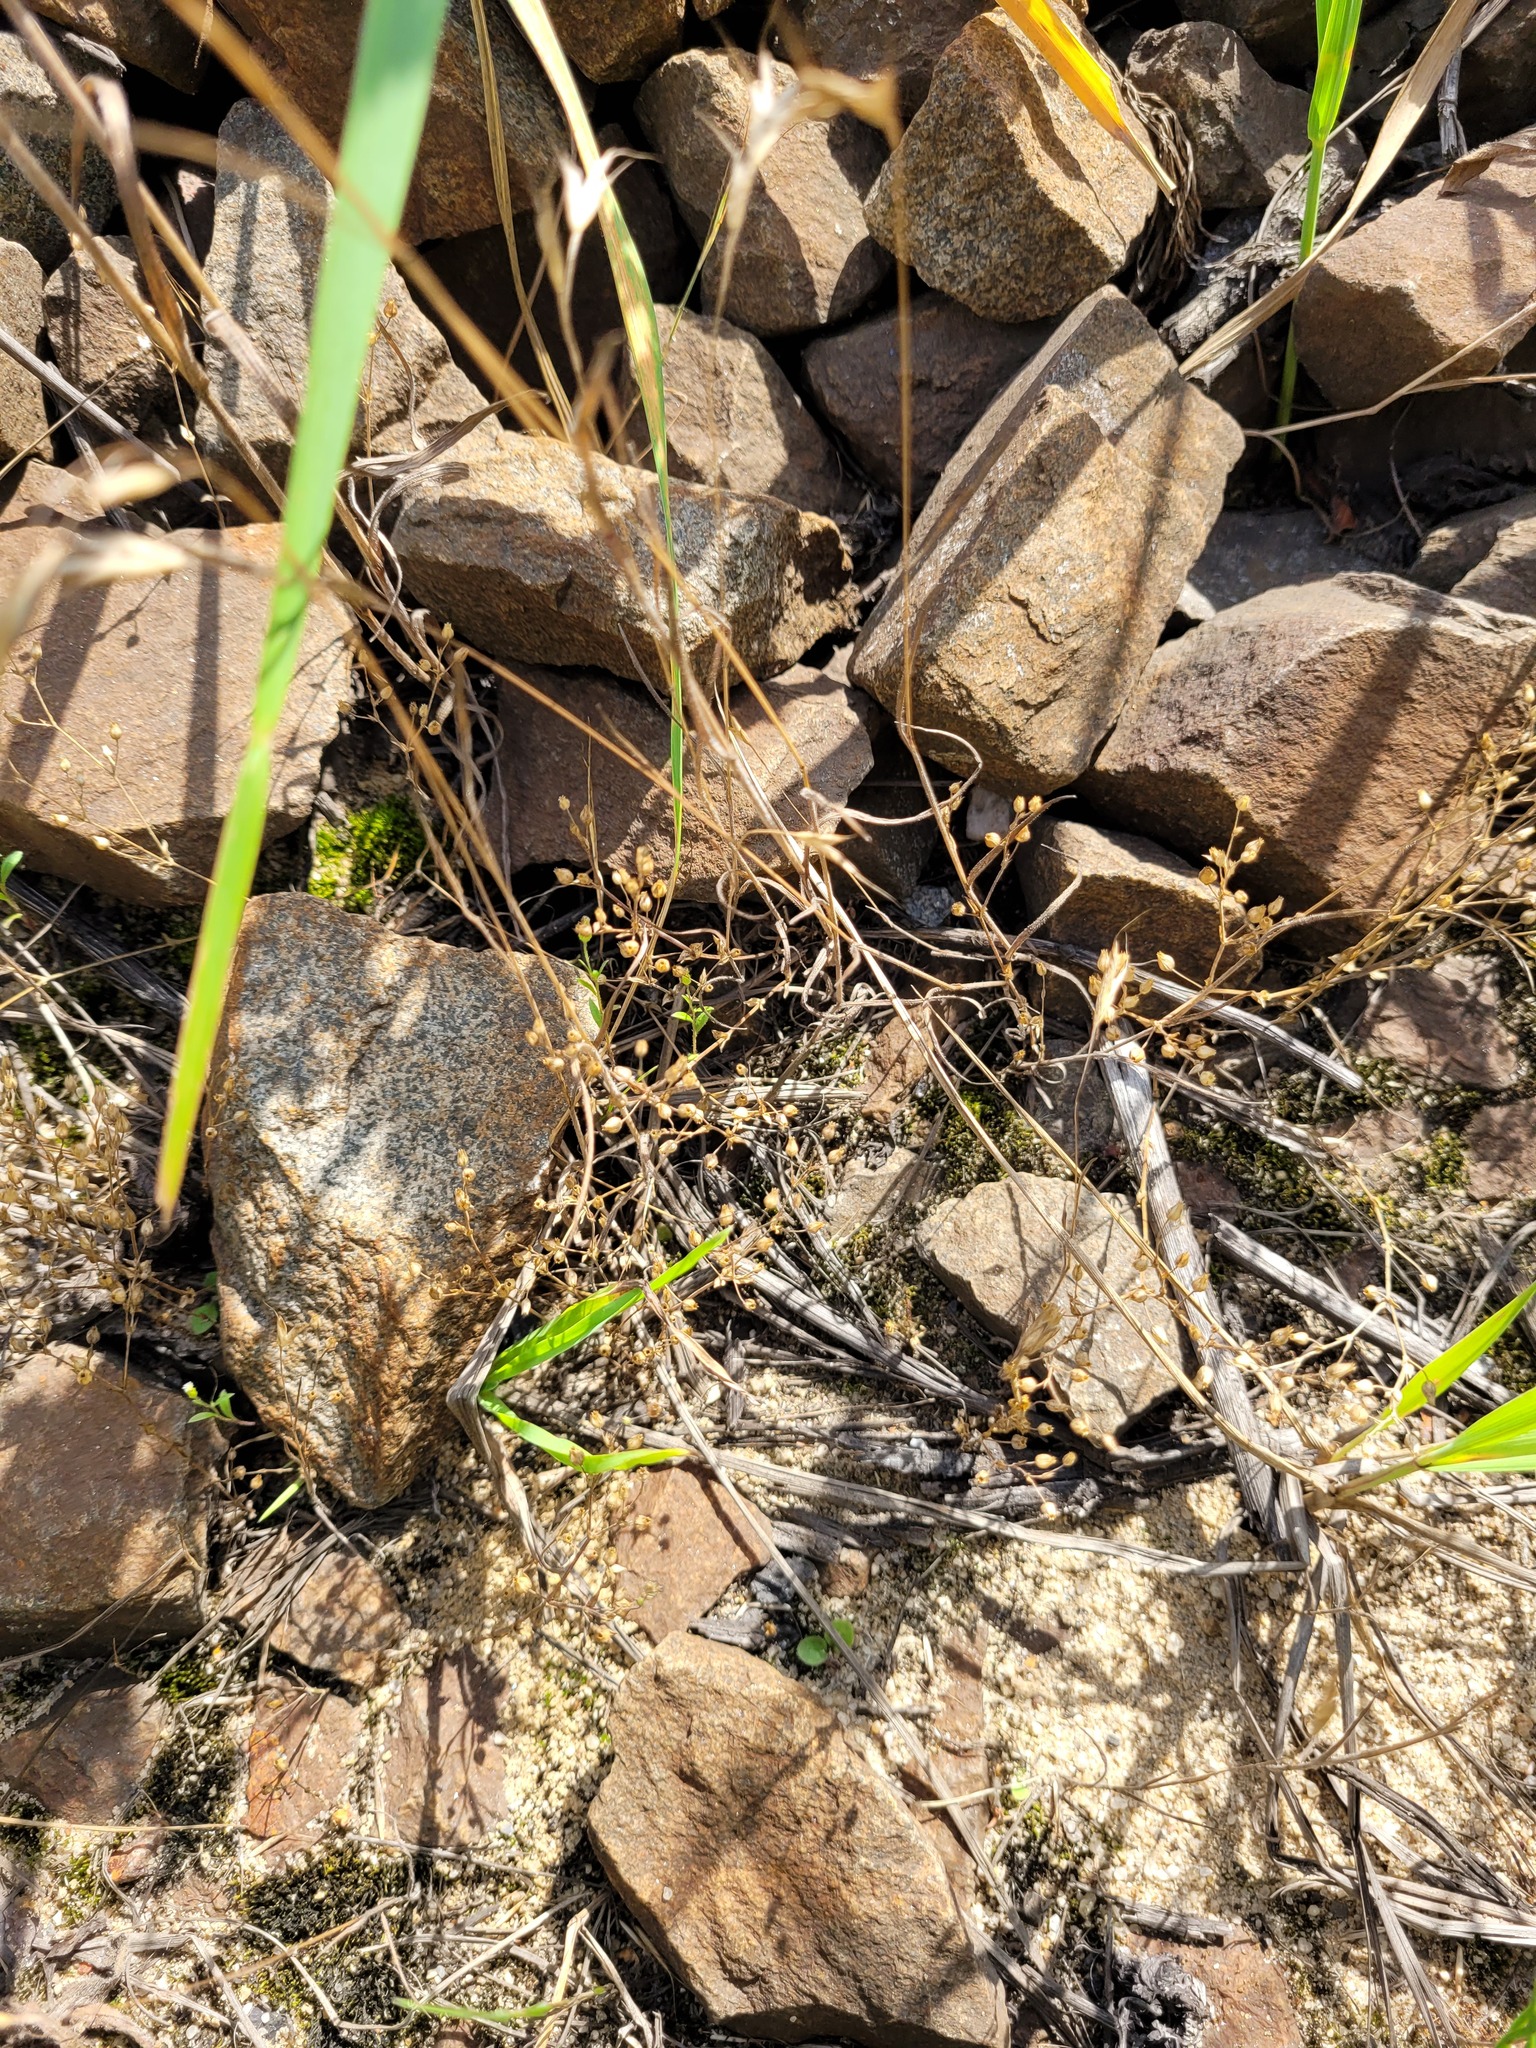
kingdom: Plantae
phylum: Tracheophyta
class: Magnoliopsida
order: Caryophyllales
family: Caryophyllaceae
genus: Arenaria
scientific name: Arenaria serpyllifolia
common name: Thyme-leaved sandwort
